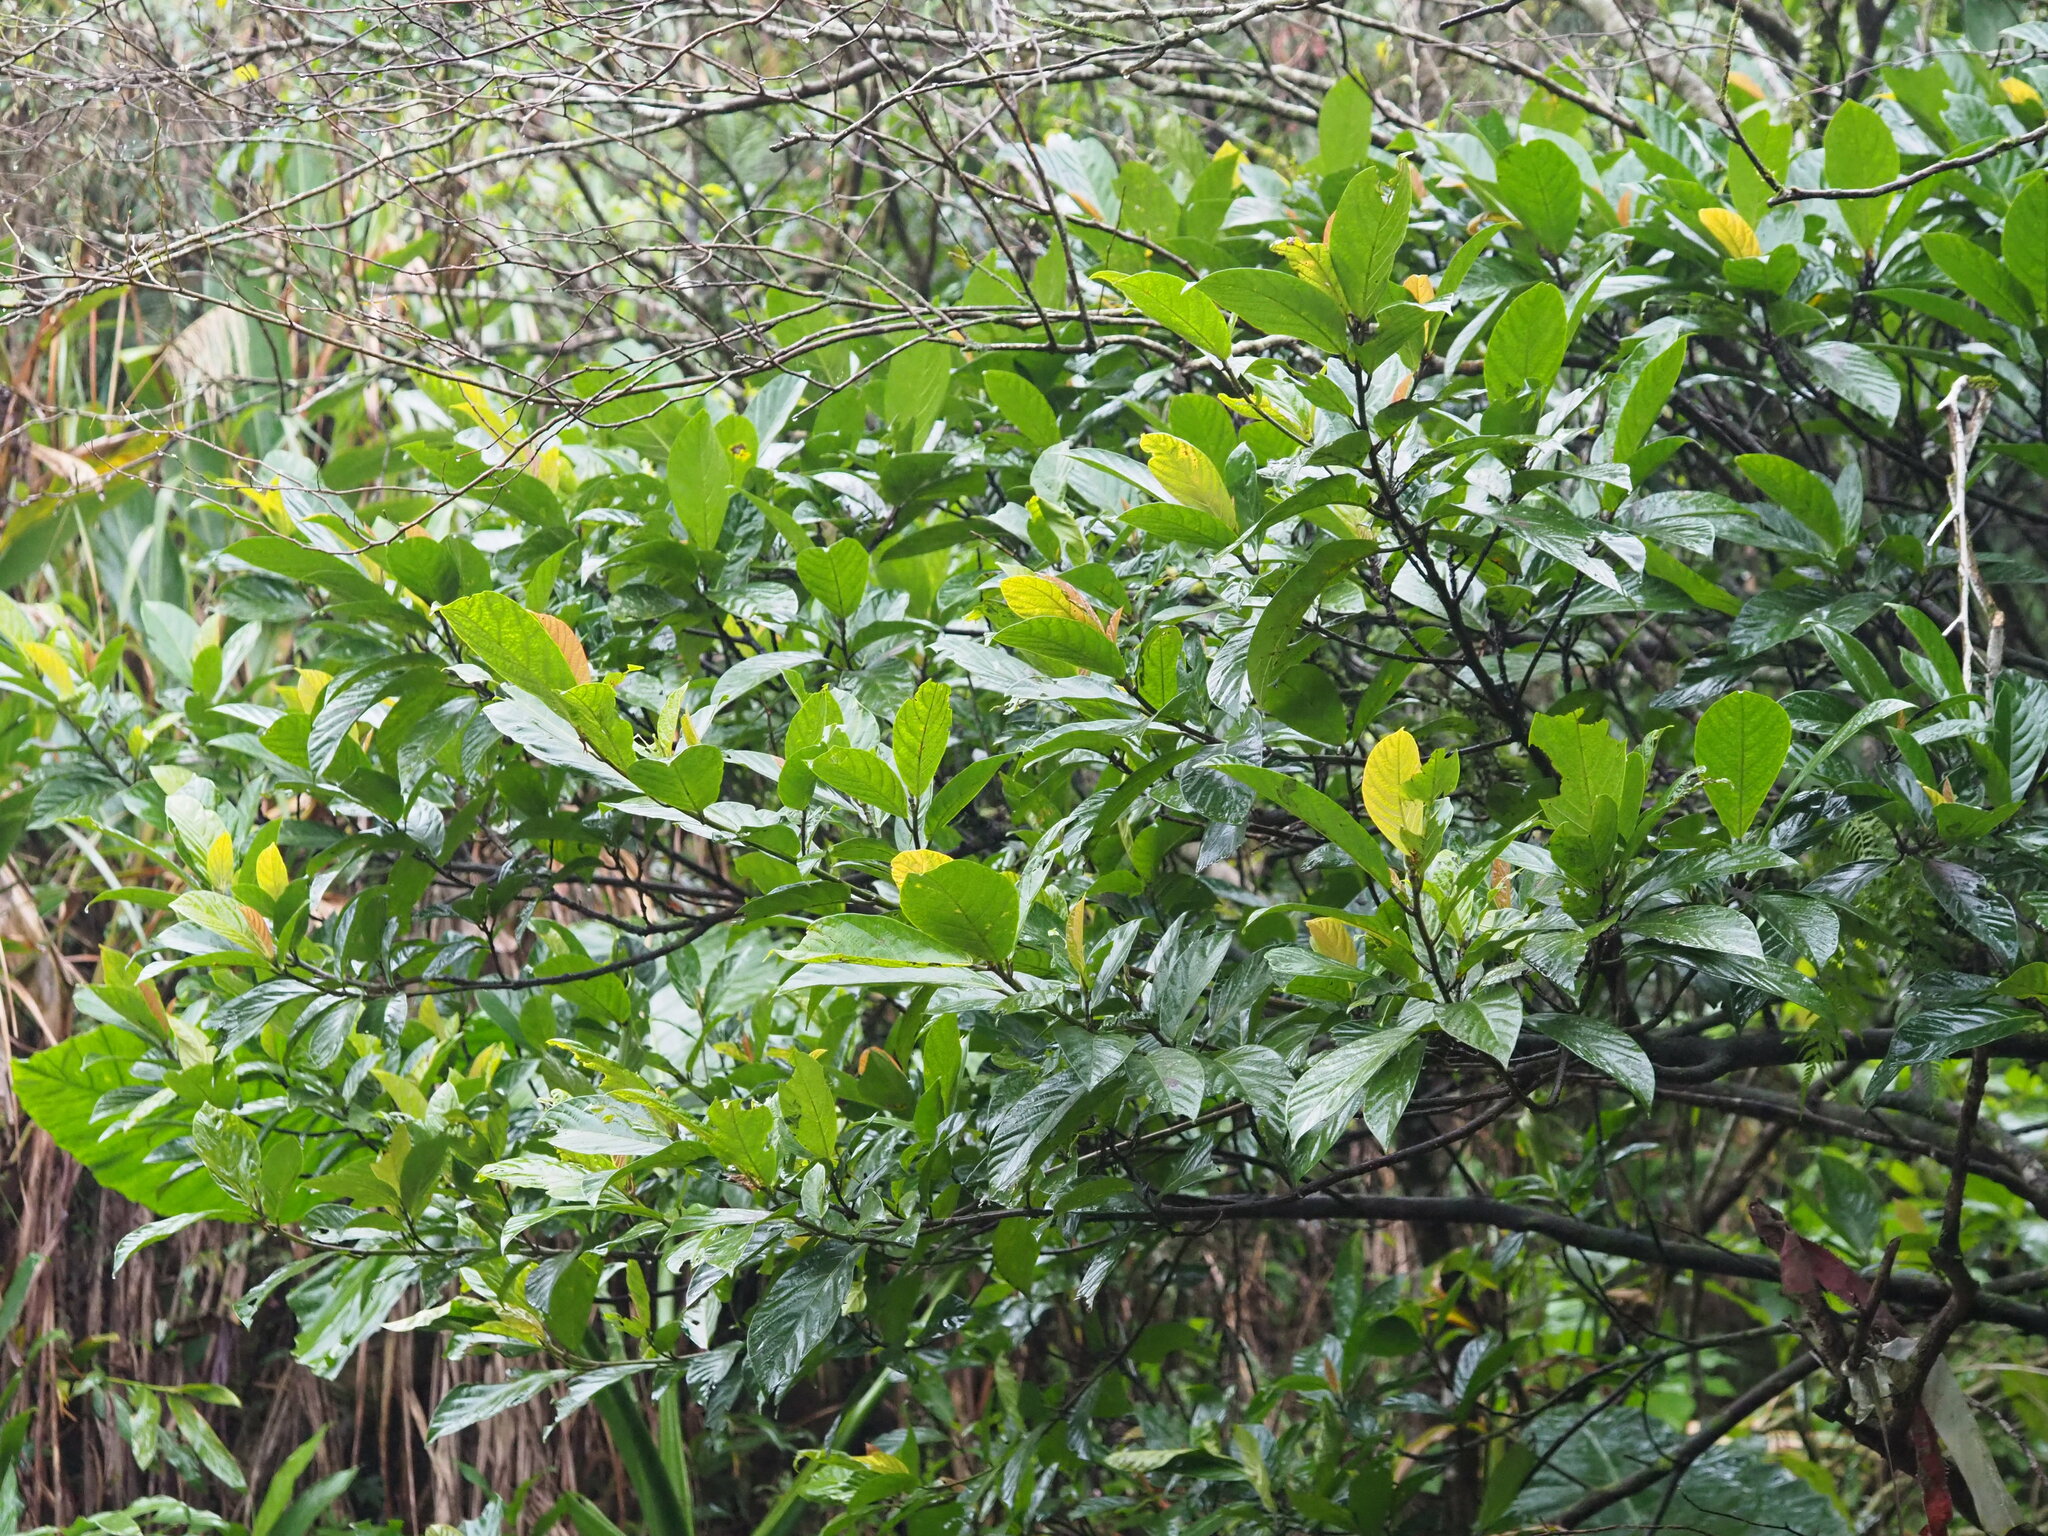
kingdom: Plantae
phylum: Tracheophyta
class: Magnoliopsida
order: Rosales
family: Moraceae
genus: Ficus
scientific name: Ficus benguetensis
